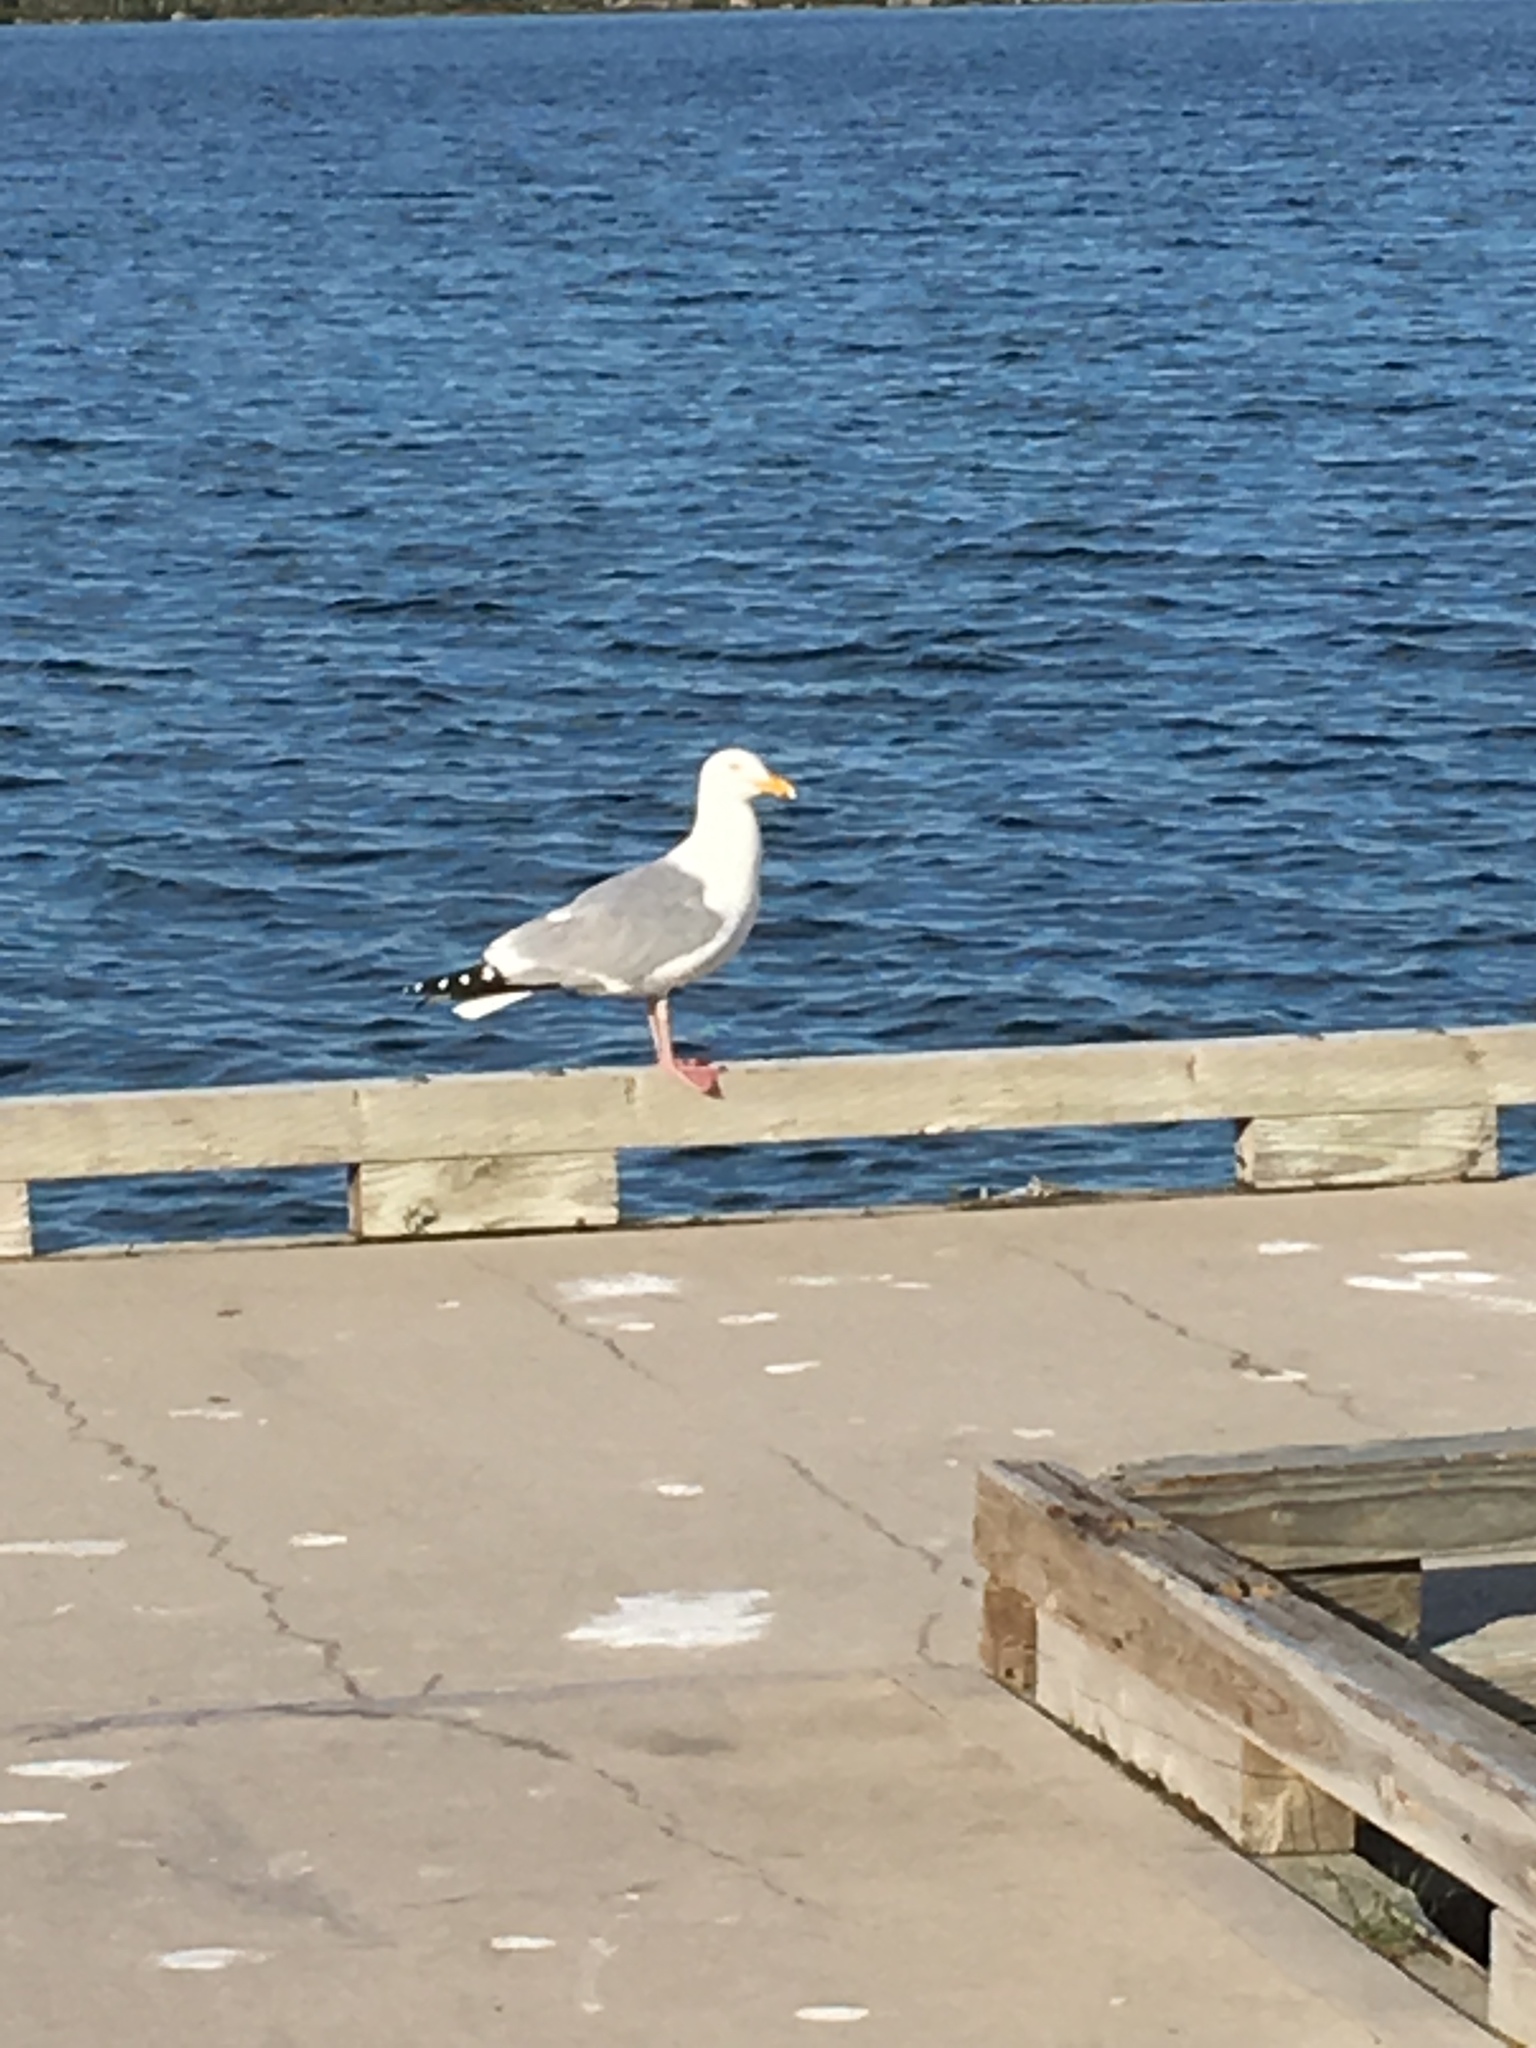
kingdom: Animalia
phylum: Chordata
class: Aves
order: Charadriiformes
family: Laridae
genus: Larus
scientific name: Larus argentatus
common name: Herring gull
